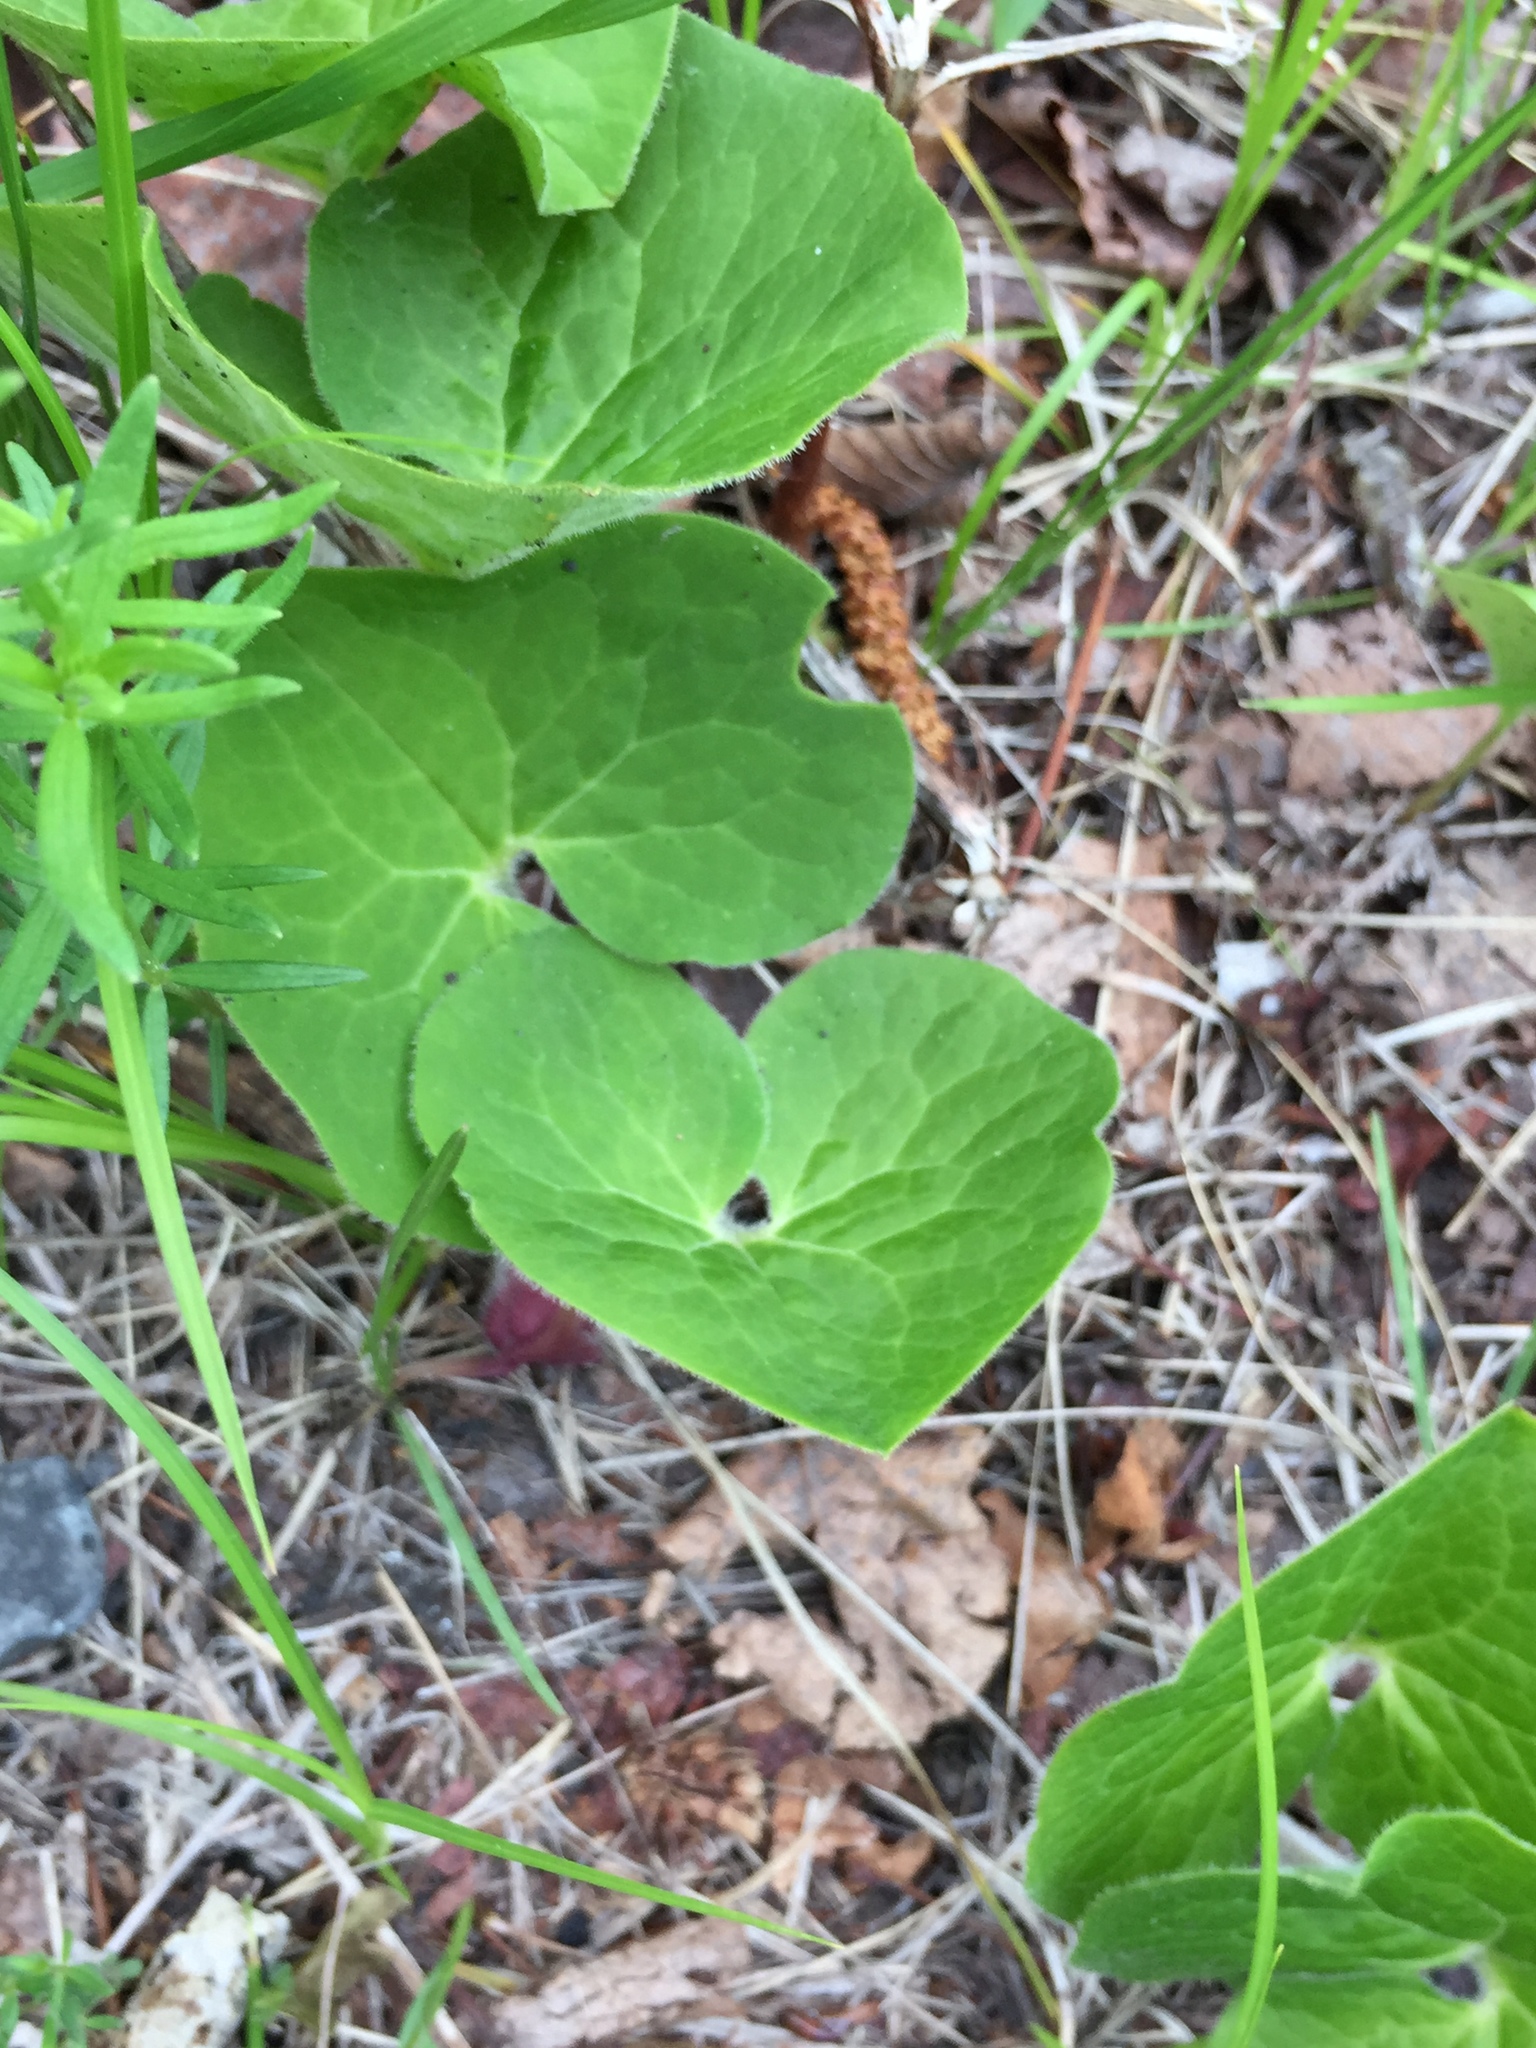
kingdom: Plantae
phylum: Tracheophyta
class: Magnoliopsida
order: Piperales
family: Aristolochiaceae
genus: Asarum
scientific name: Asarum canadense
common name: Wild ginger
